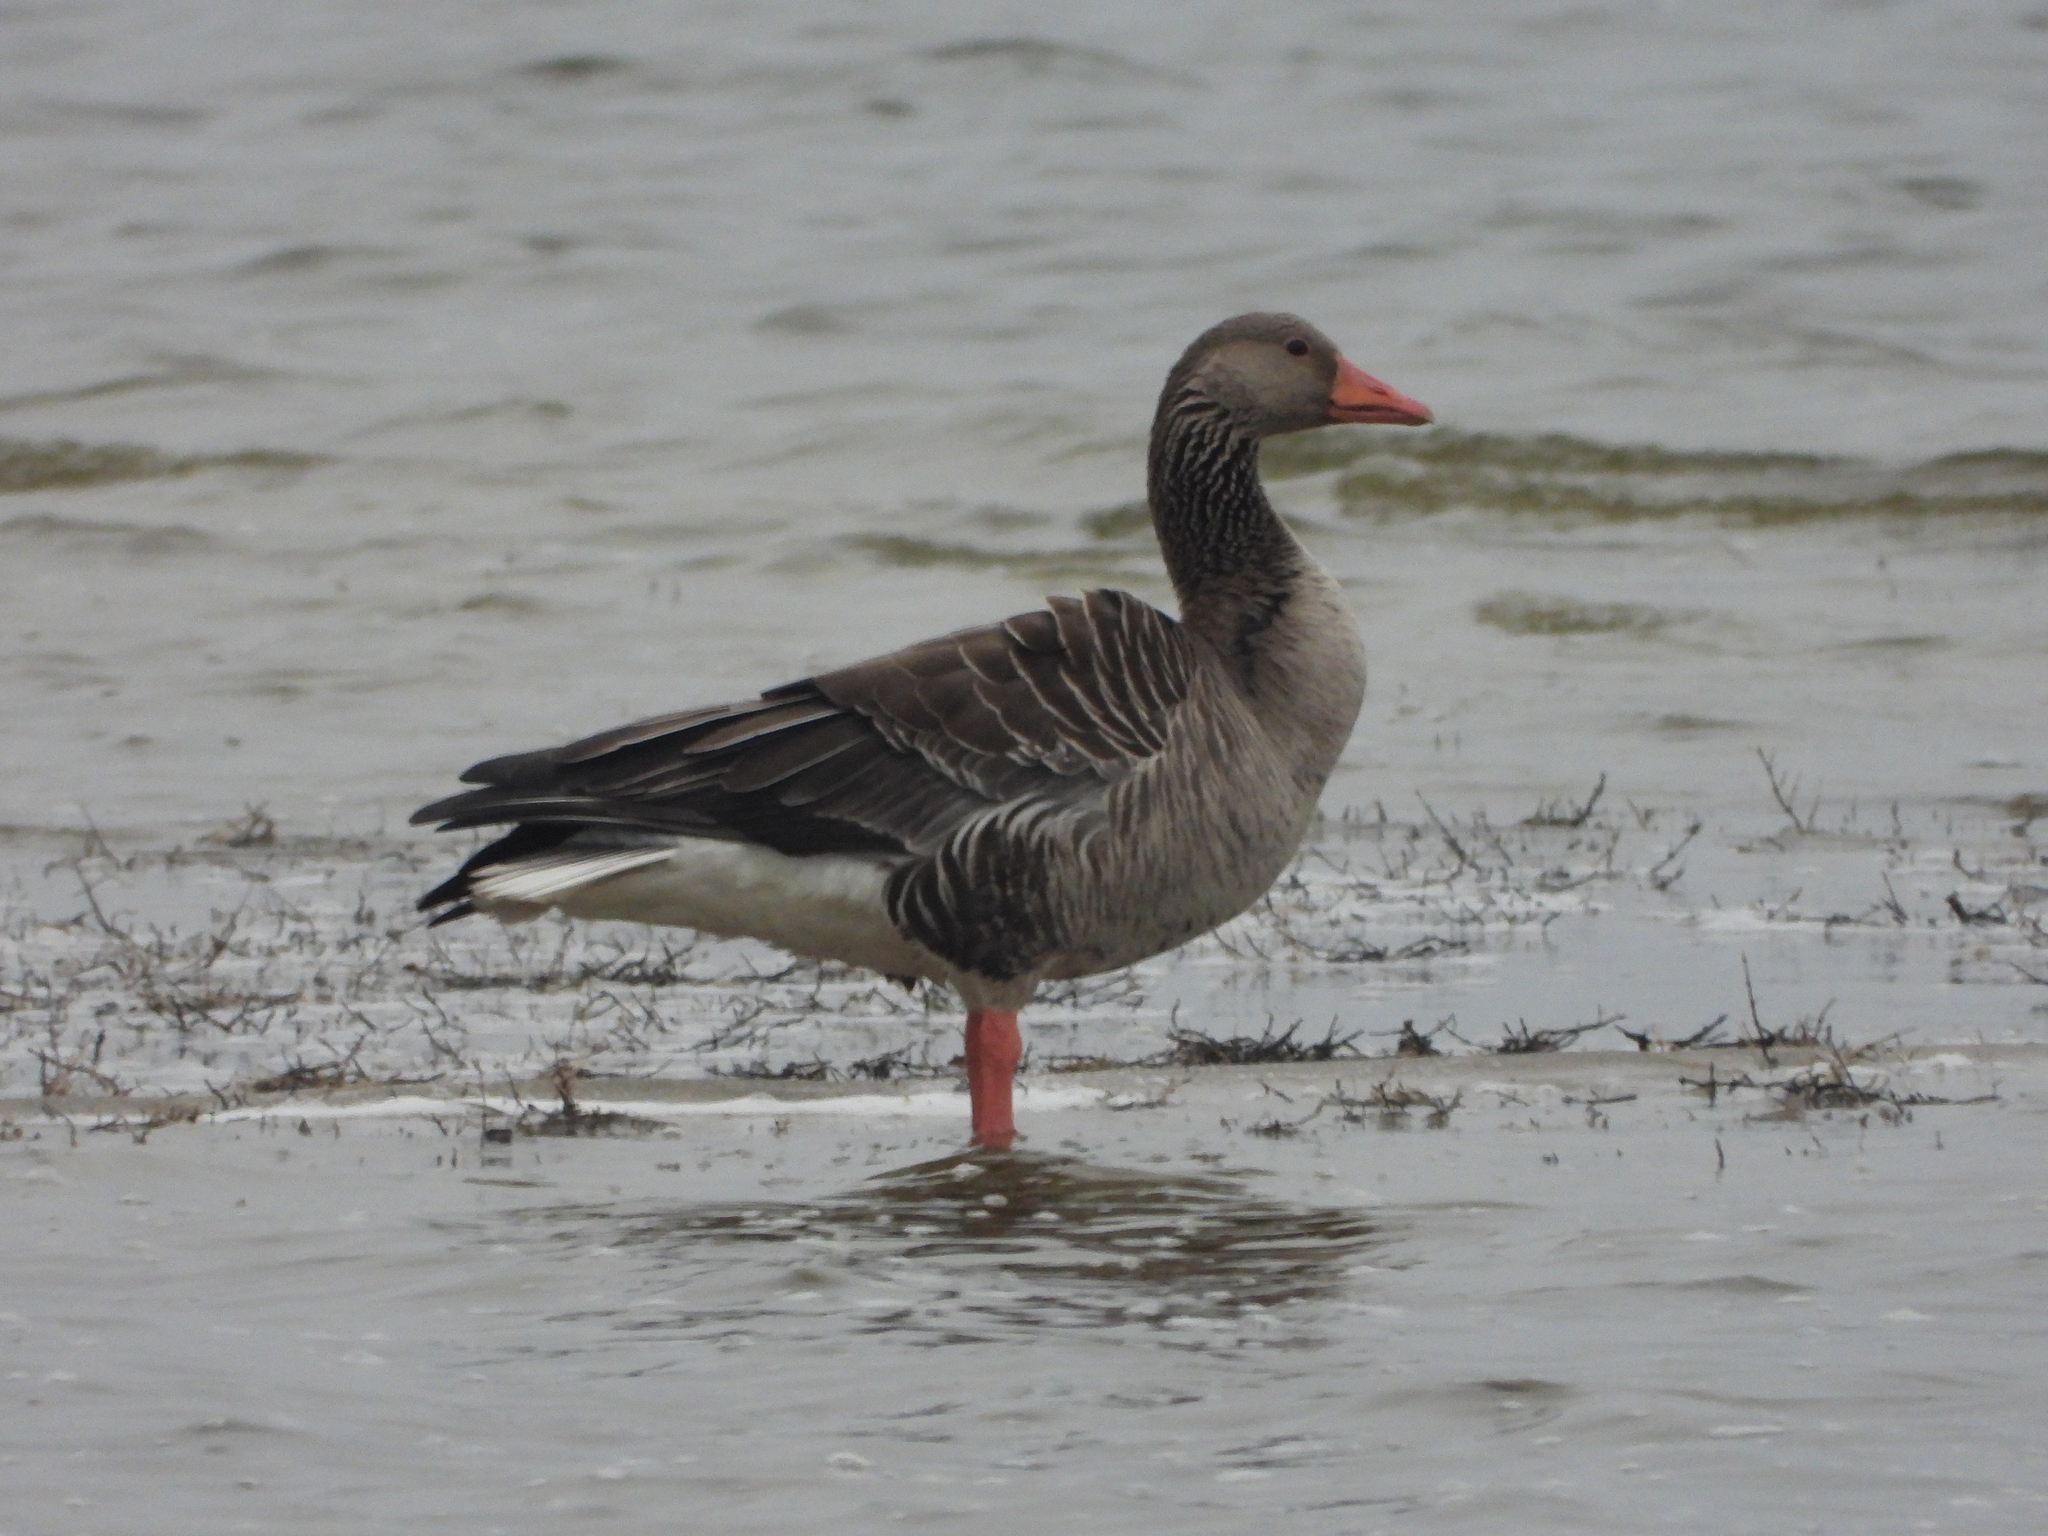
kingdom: Animalia
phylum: Chordata
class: Aves
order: Anseriformes
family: Anatidae
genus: Anser
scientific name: Anser anser
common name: Greylag goose
